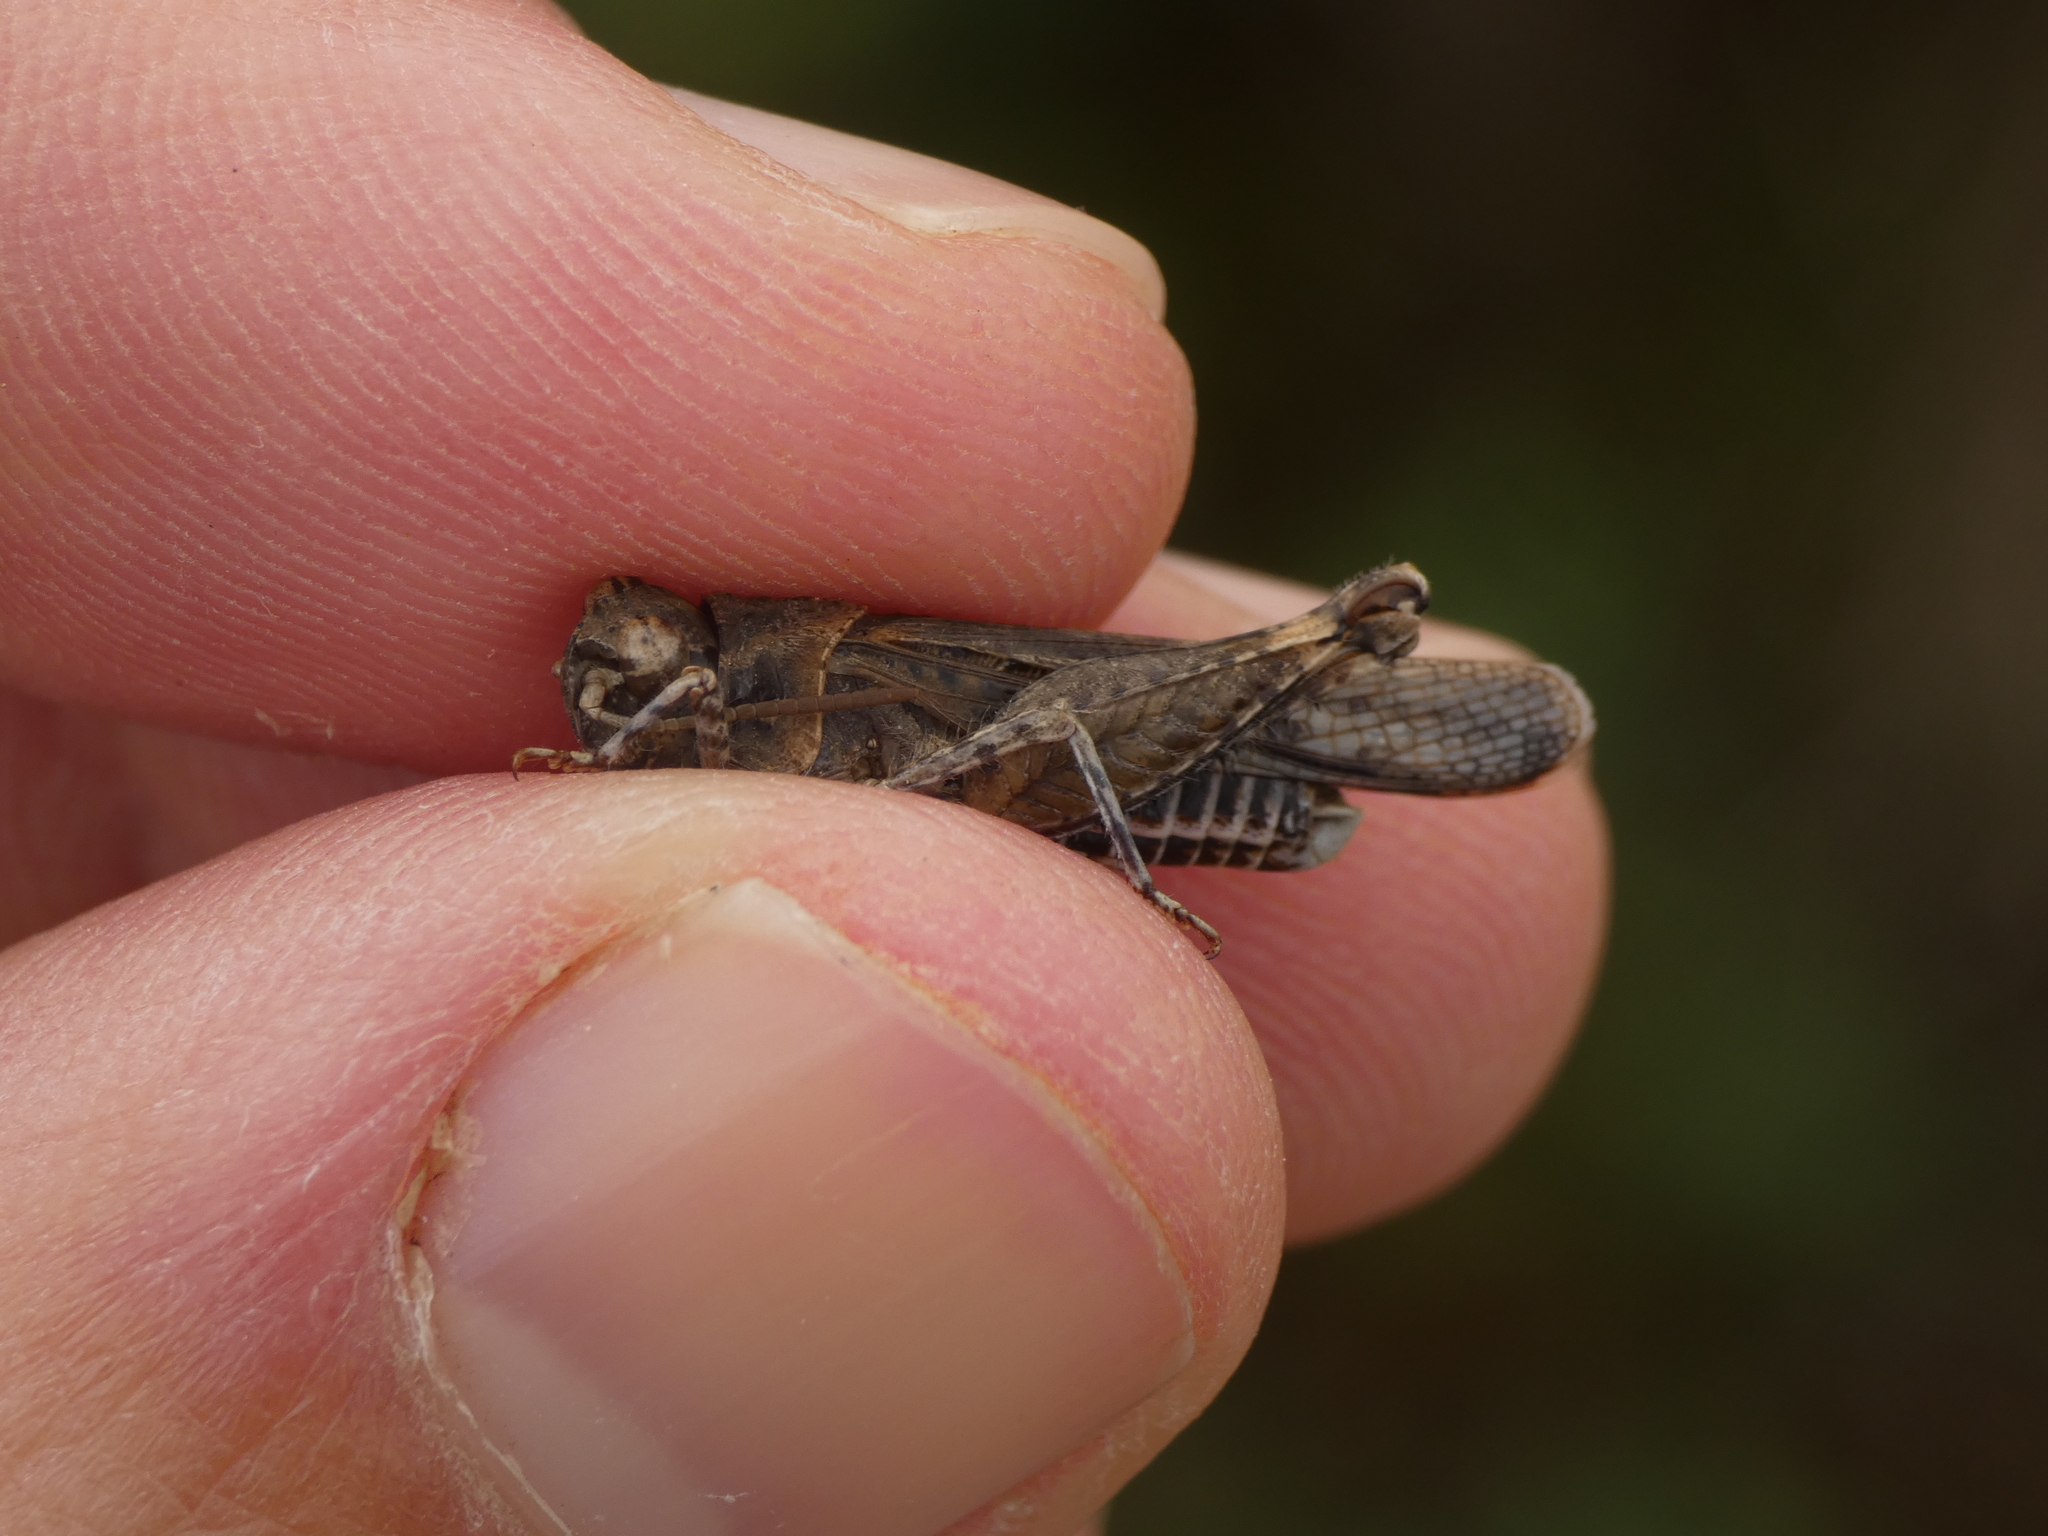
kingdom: Animalia
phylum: Arthropoda
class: Insecta
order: Orthoptera
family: Acrididae
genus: Acrotylus
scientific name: Acrotylus fischeri
